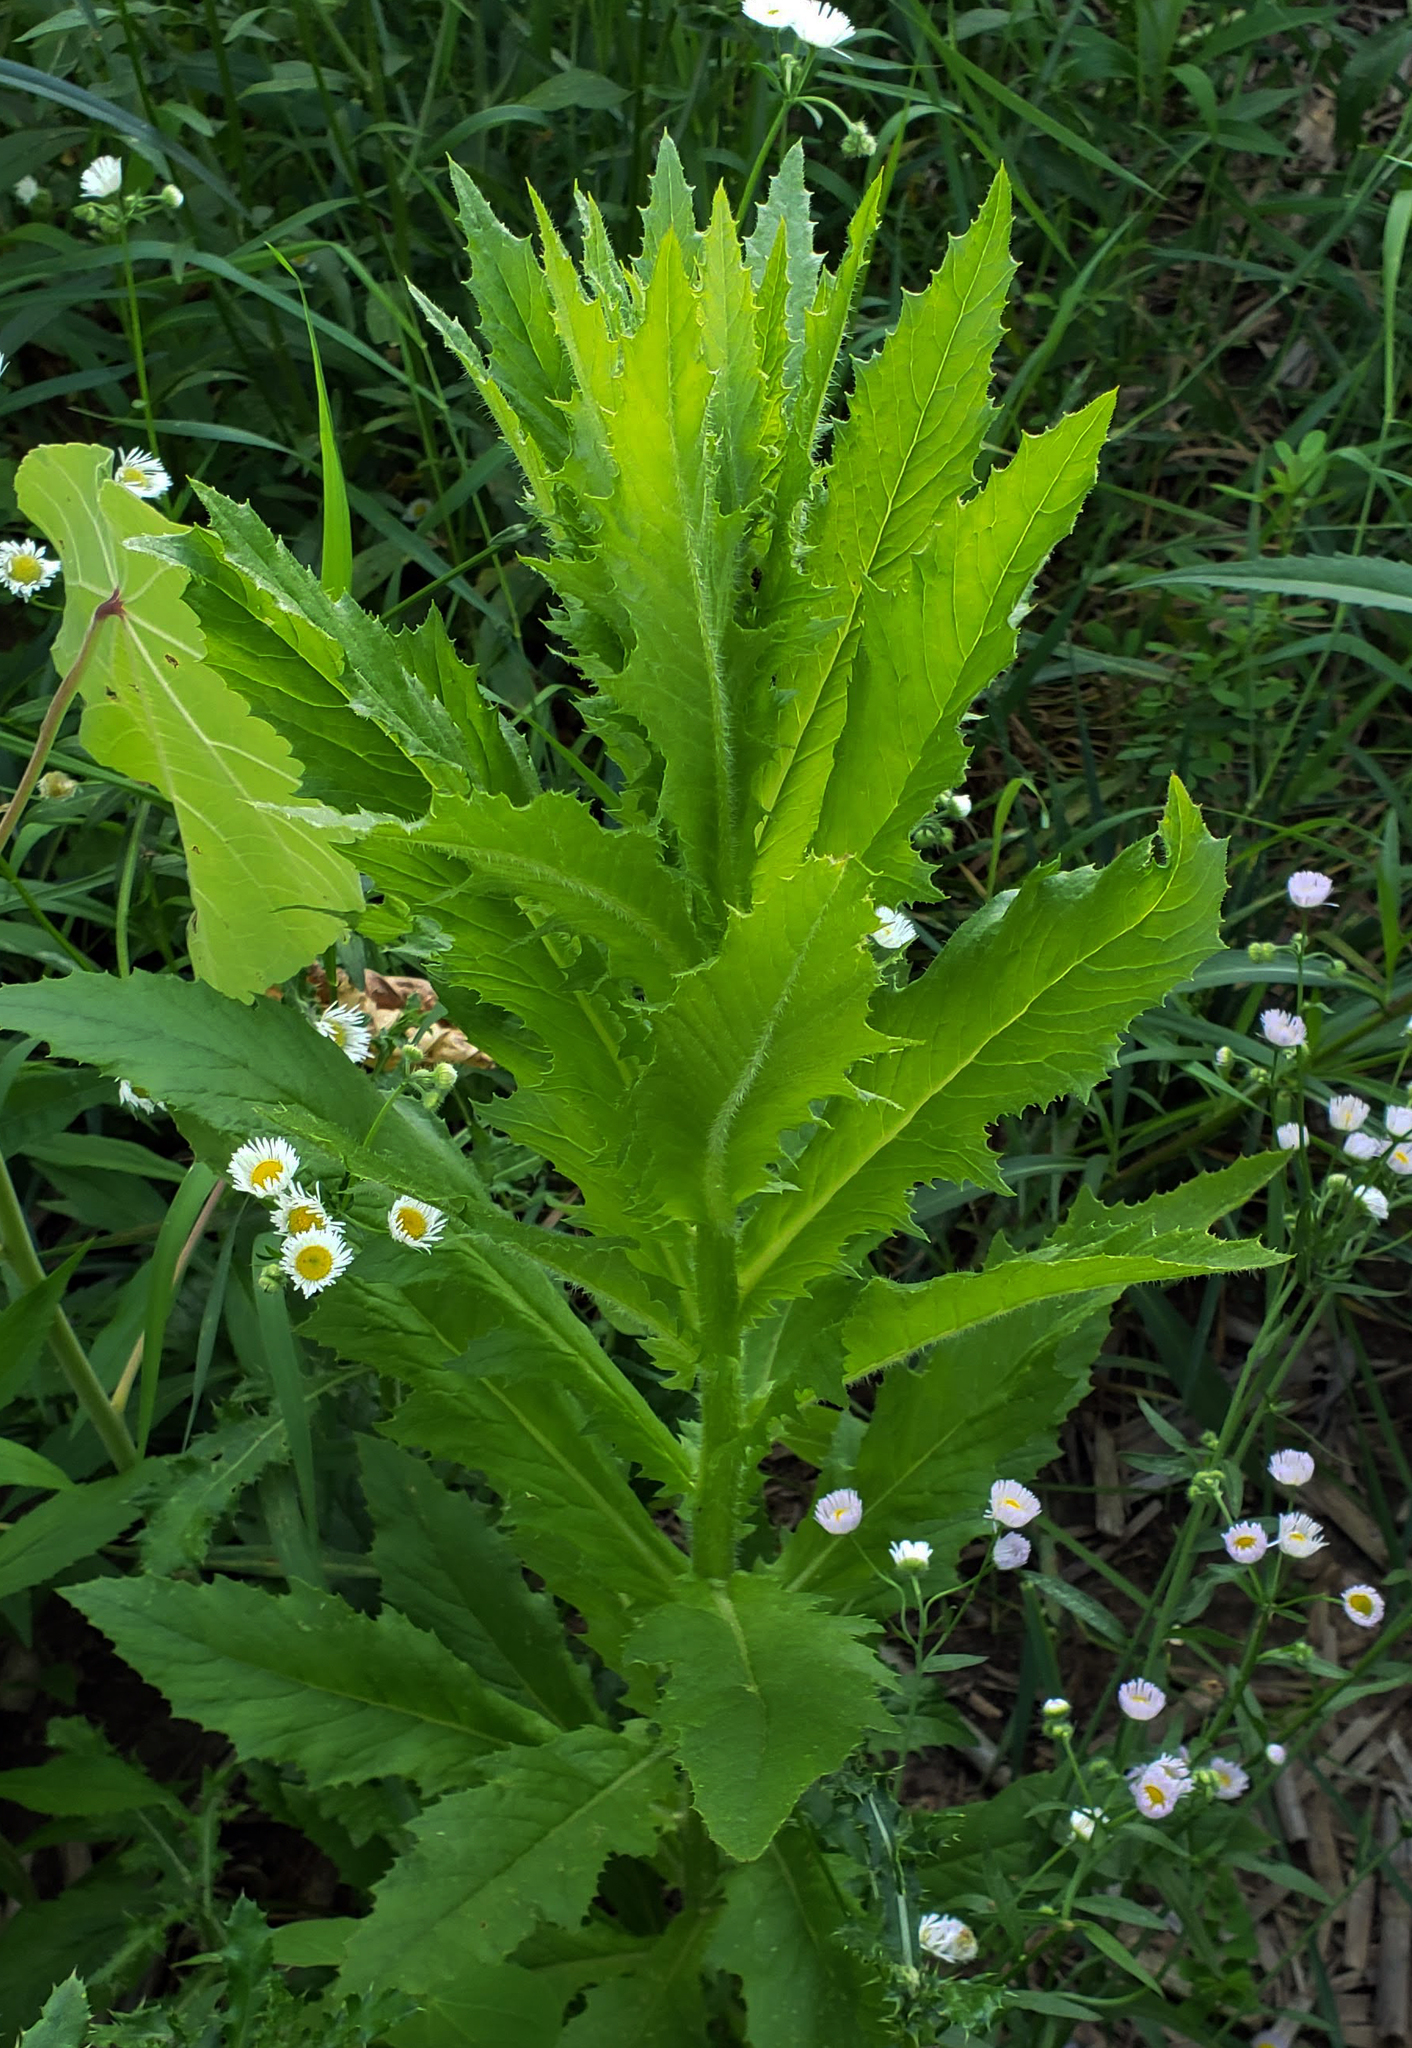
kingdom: Plantae
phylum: Tracheophyta
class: Magnoliopsida
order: Asterales
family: Asteraceae
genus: Erechtites
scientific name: Erechtites hieraciifolius
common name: American burnweed
